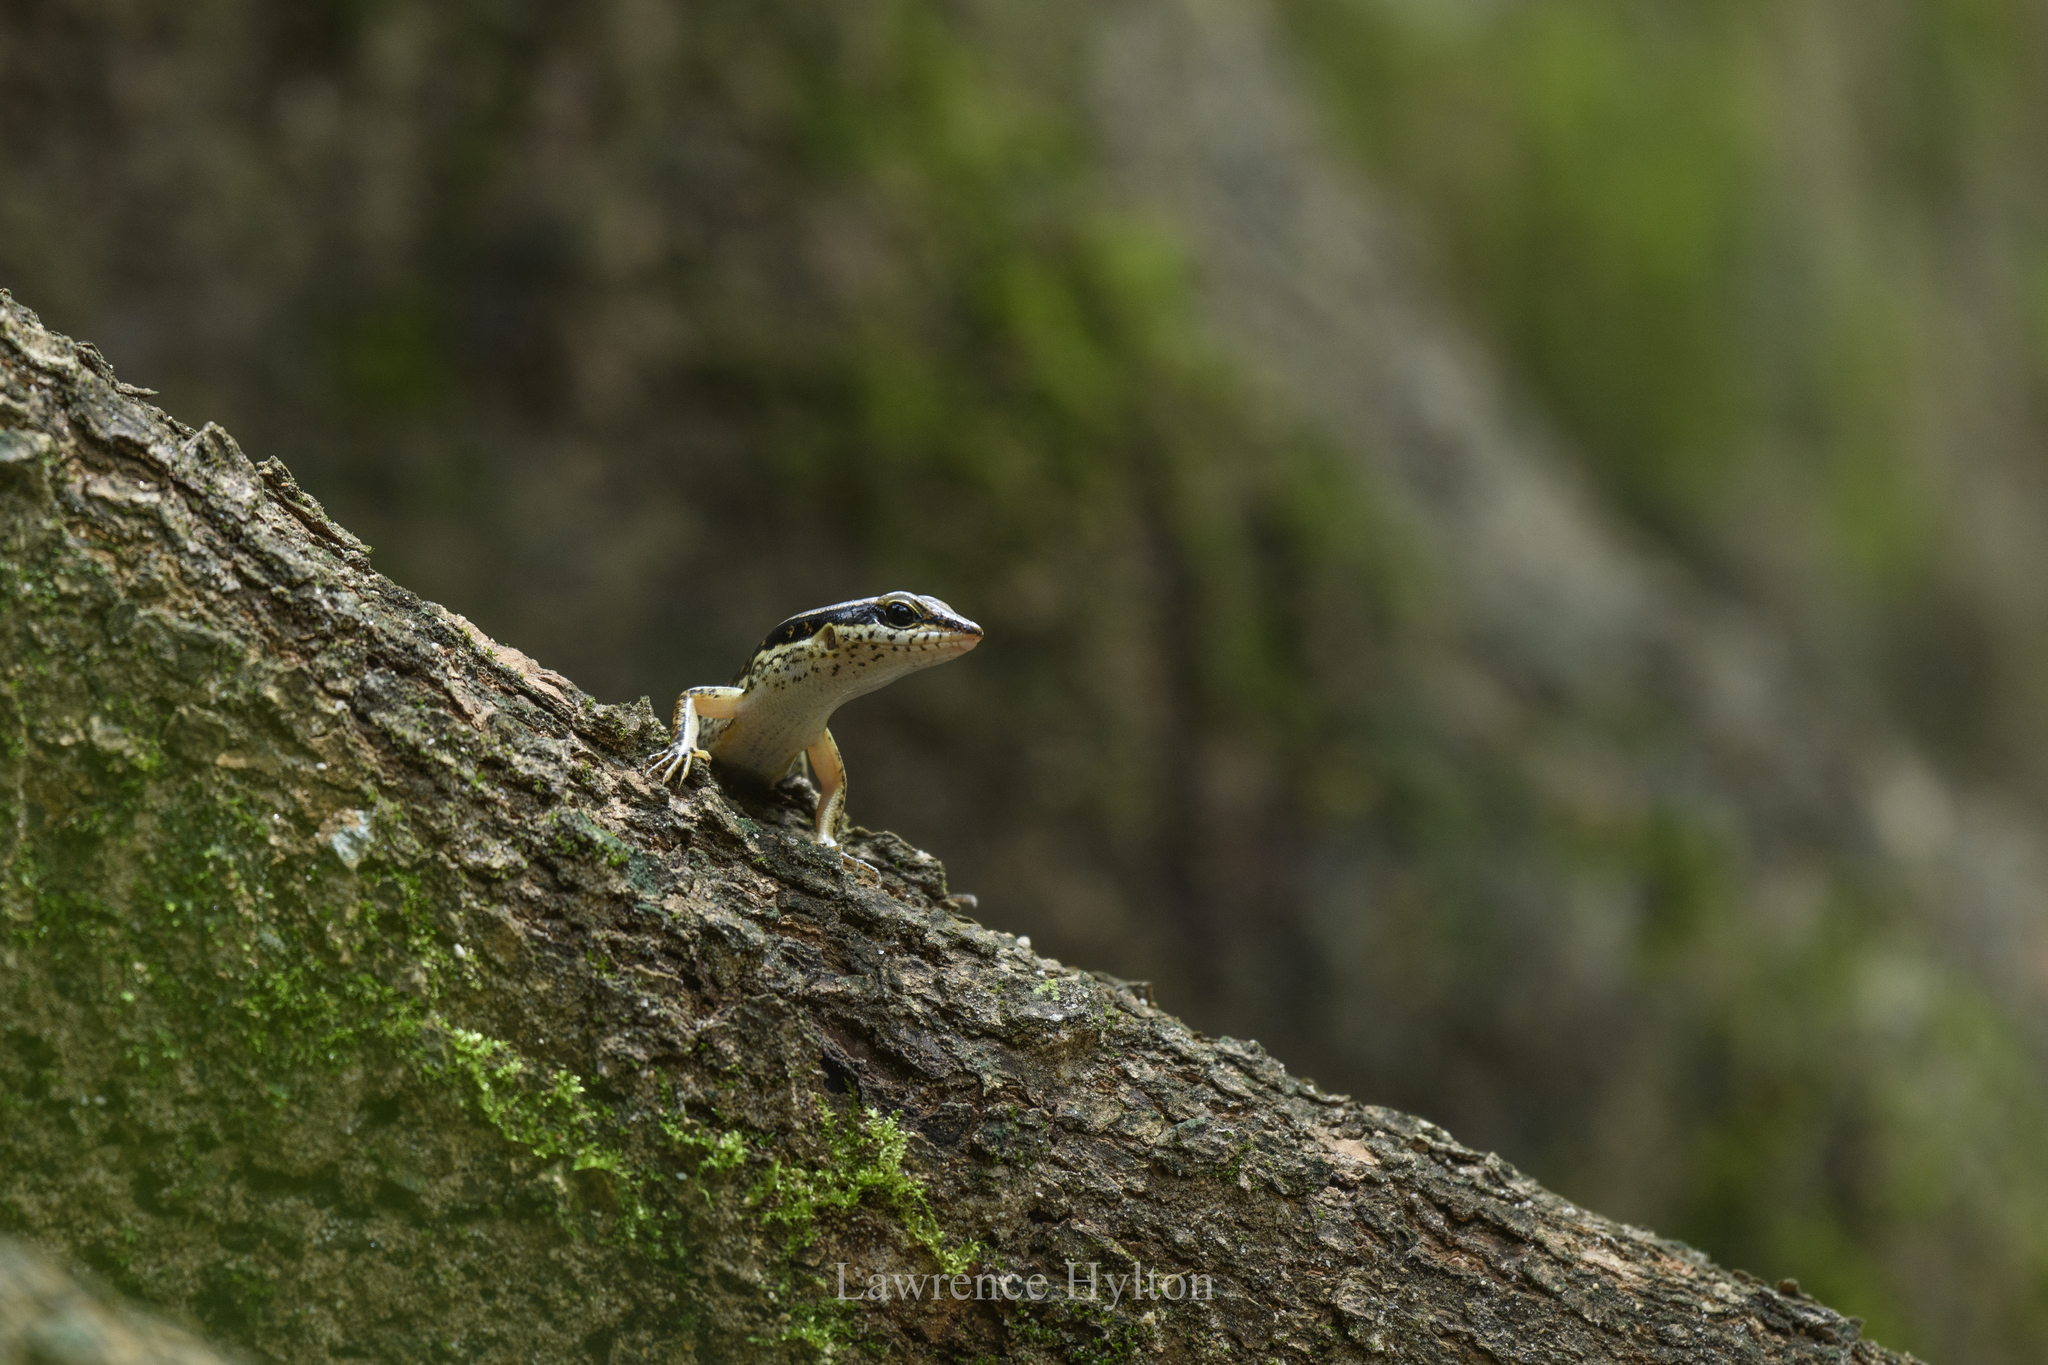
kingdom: Animalia
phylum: Chordata
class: Squamata
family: Scincidae
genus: Sphenomorphus
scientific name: Sphenomorphus maculatus
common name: Maculated forest skink
